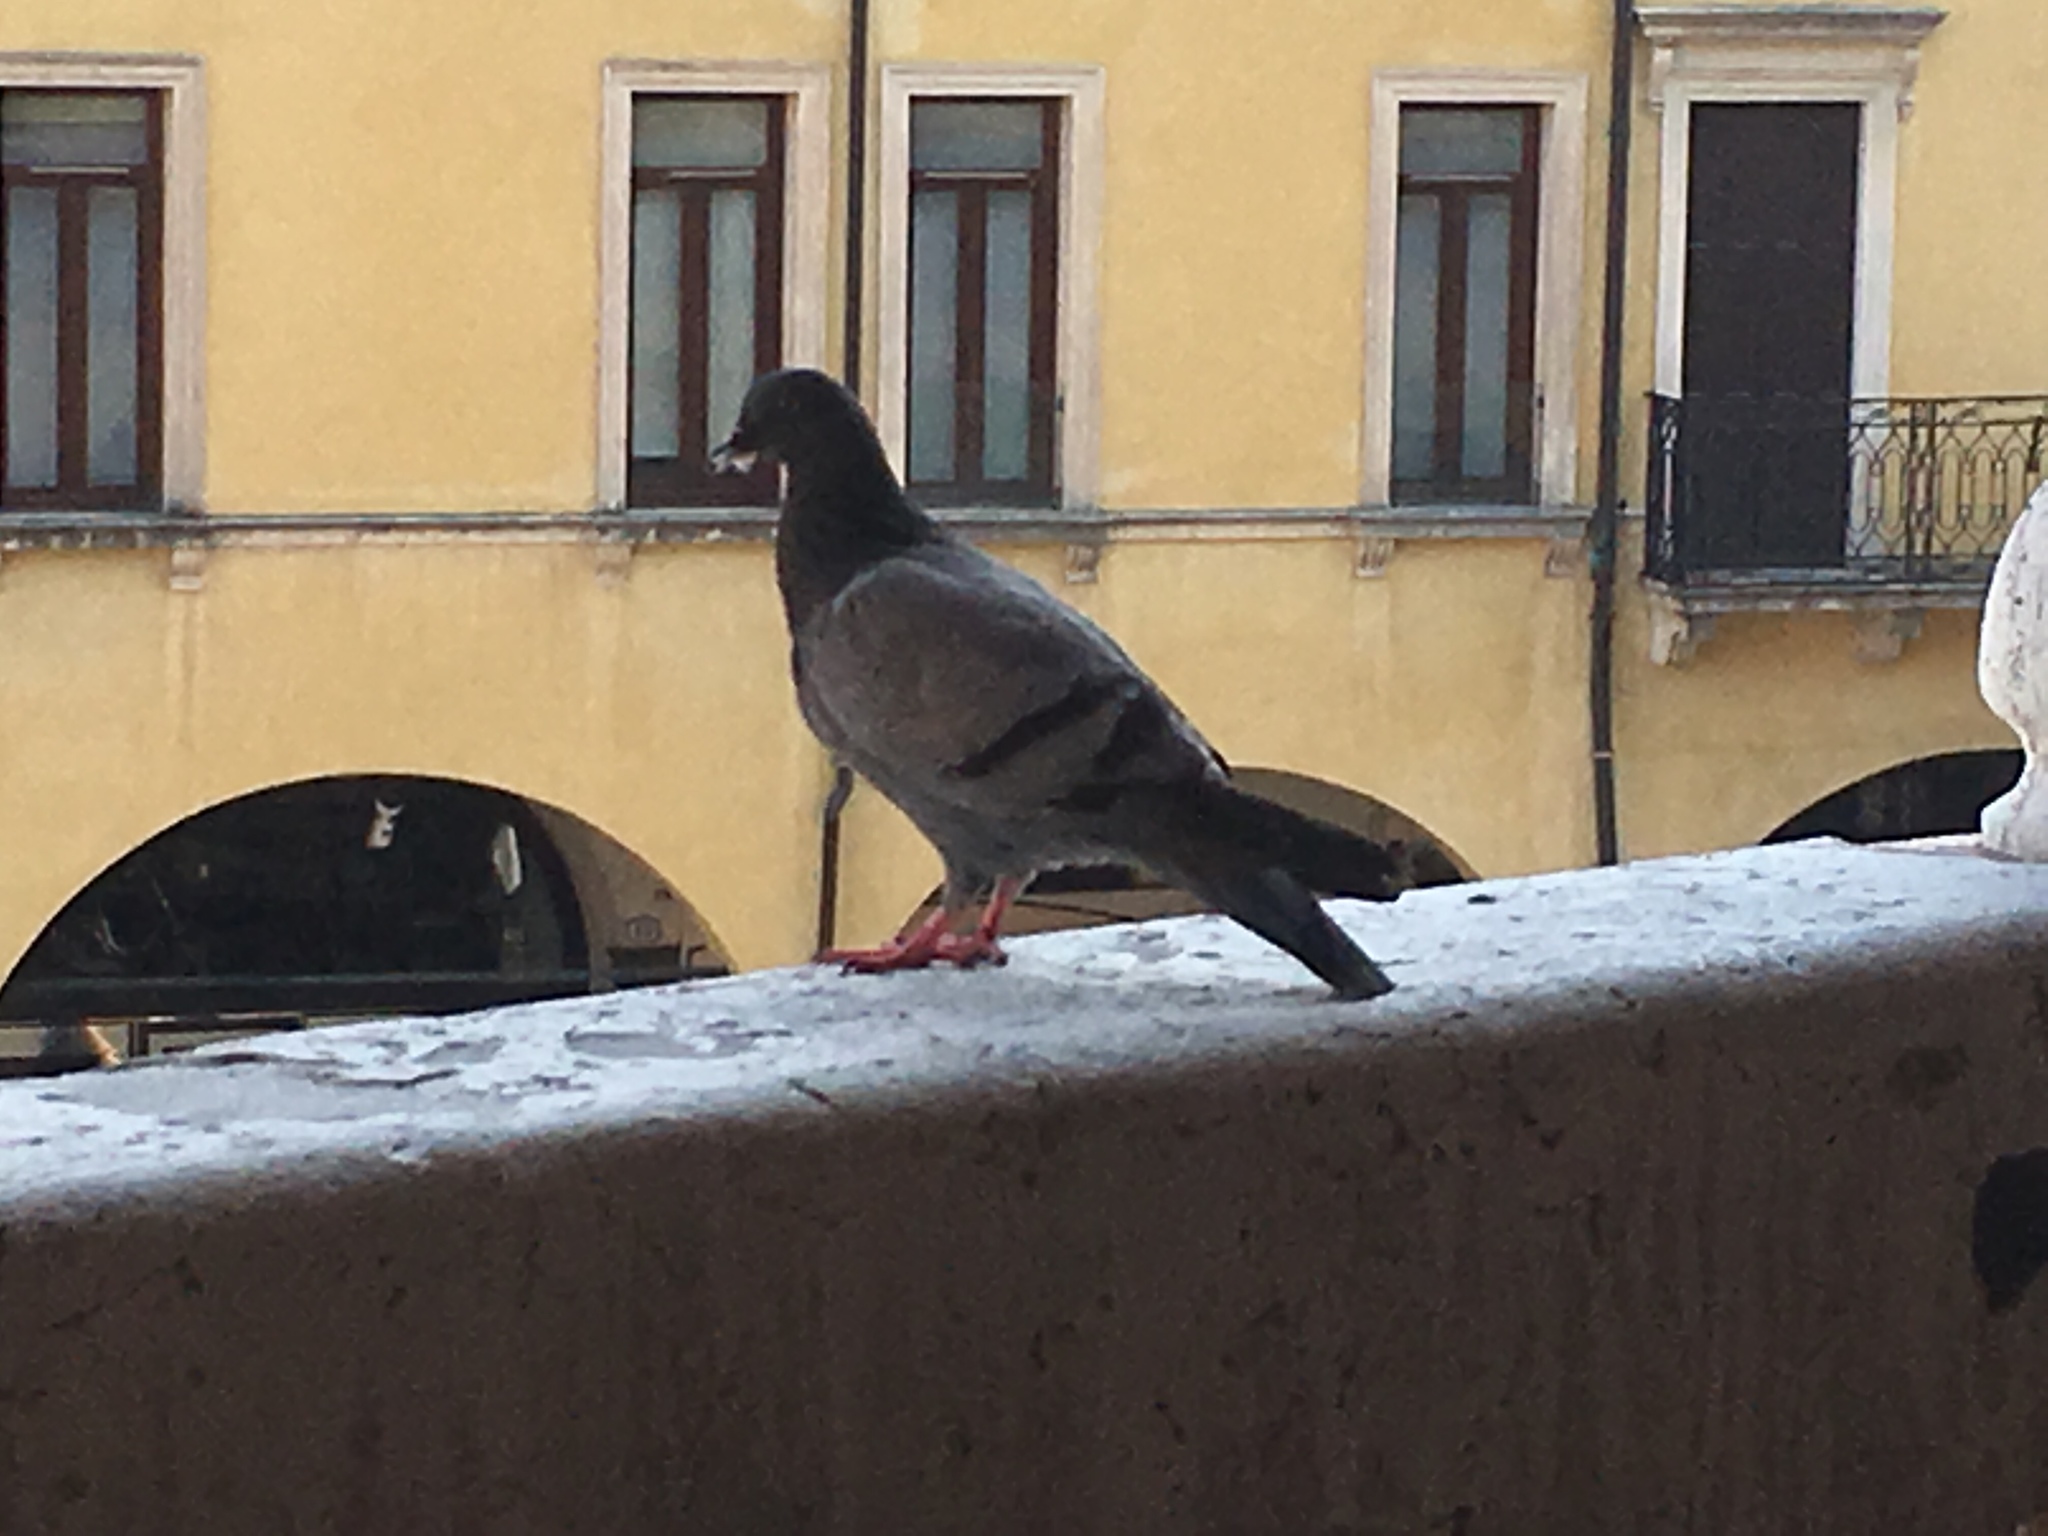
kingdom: Animalia
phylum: Chordata
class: Aves
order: Columbiformes
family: Columbidae
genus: Columba
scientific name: Columba livia
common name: Rock pigeon
